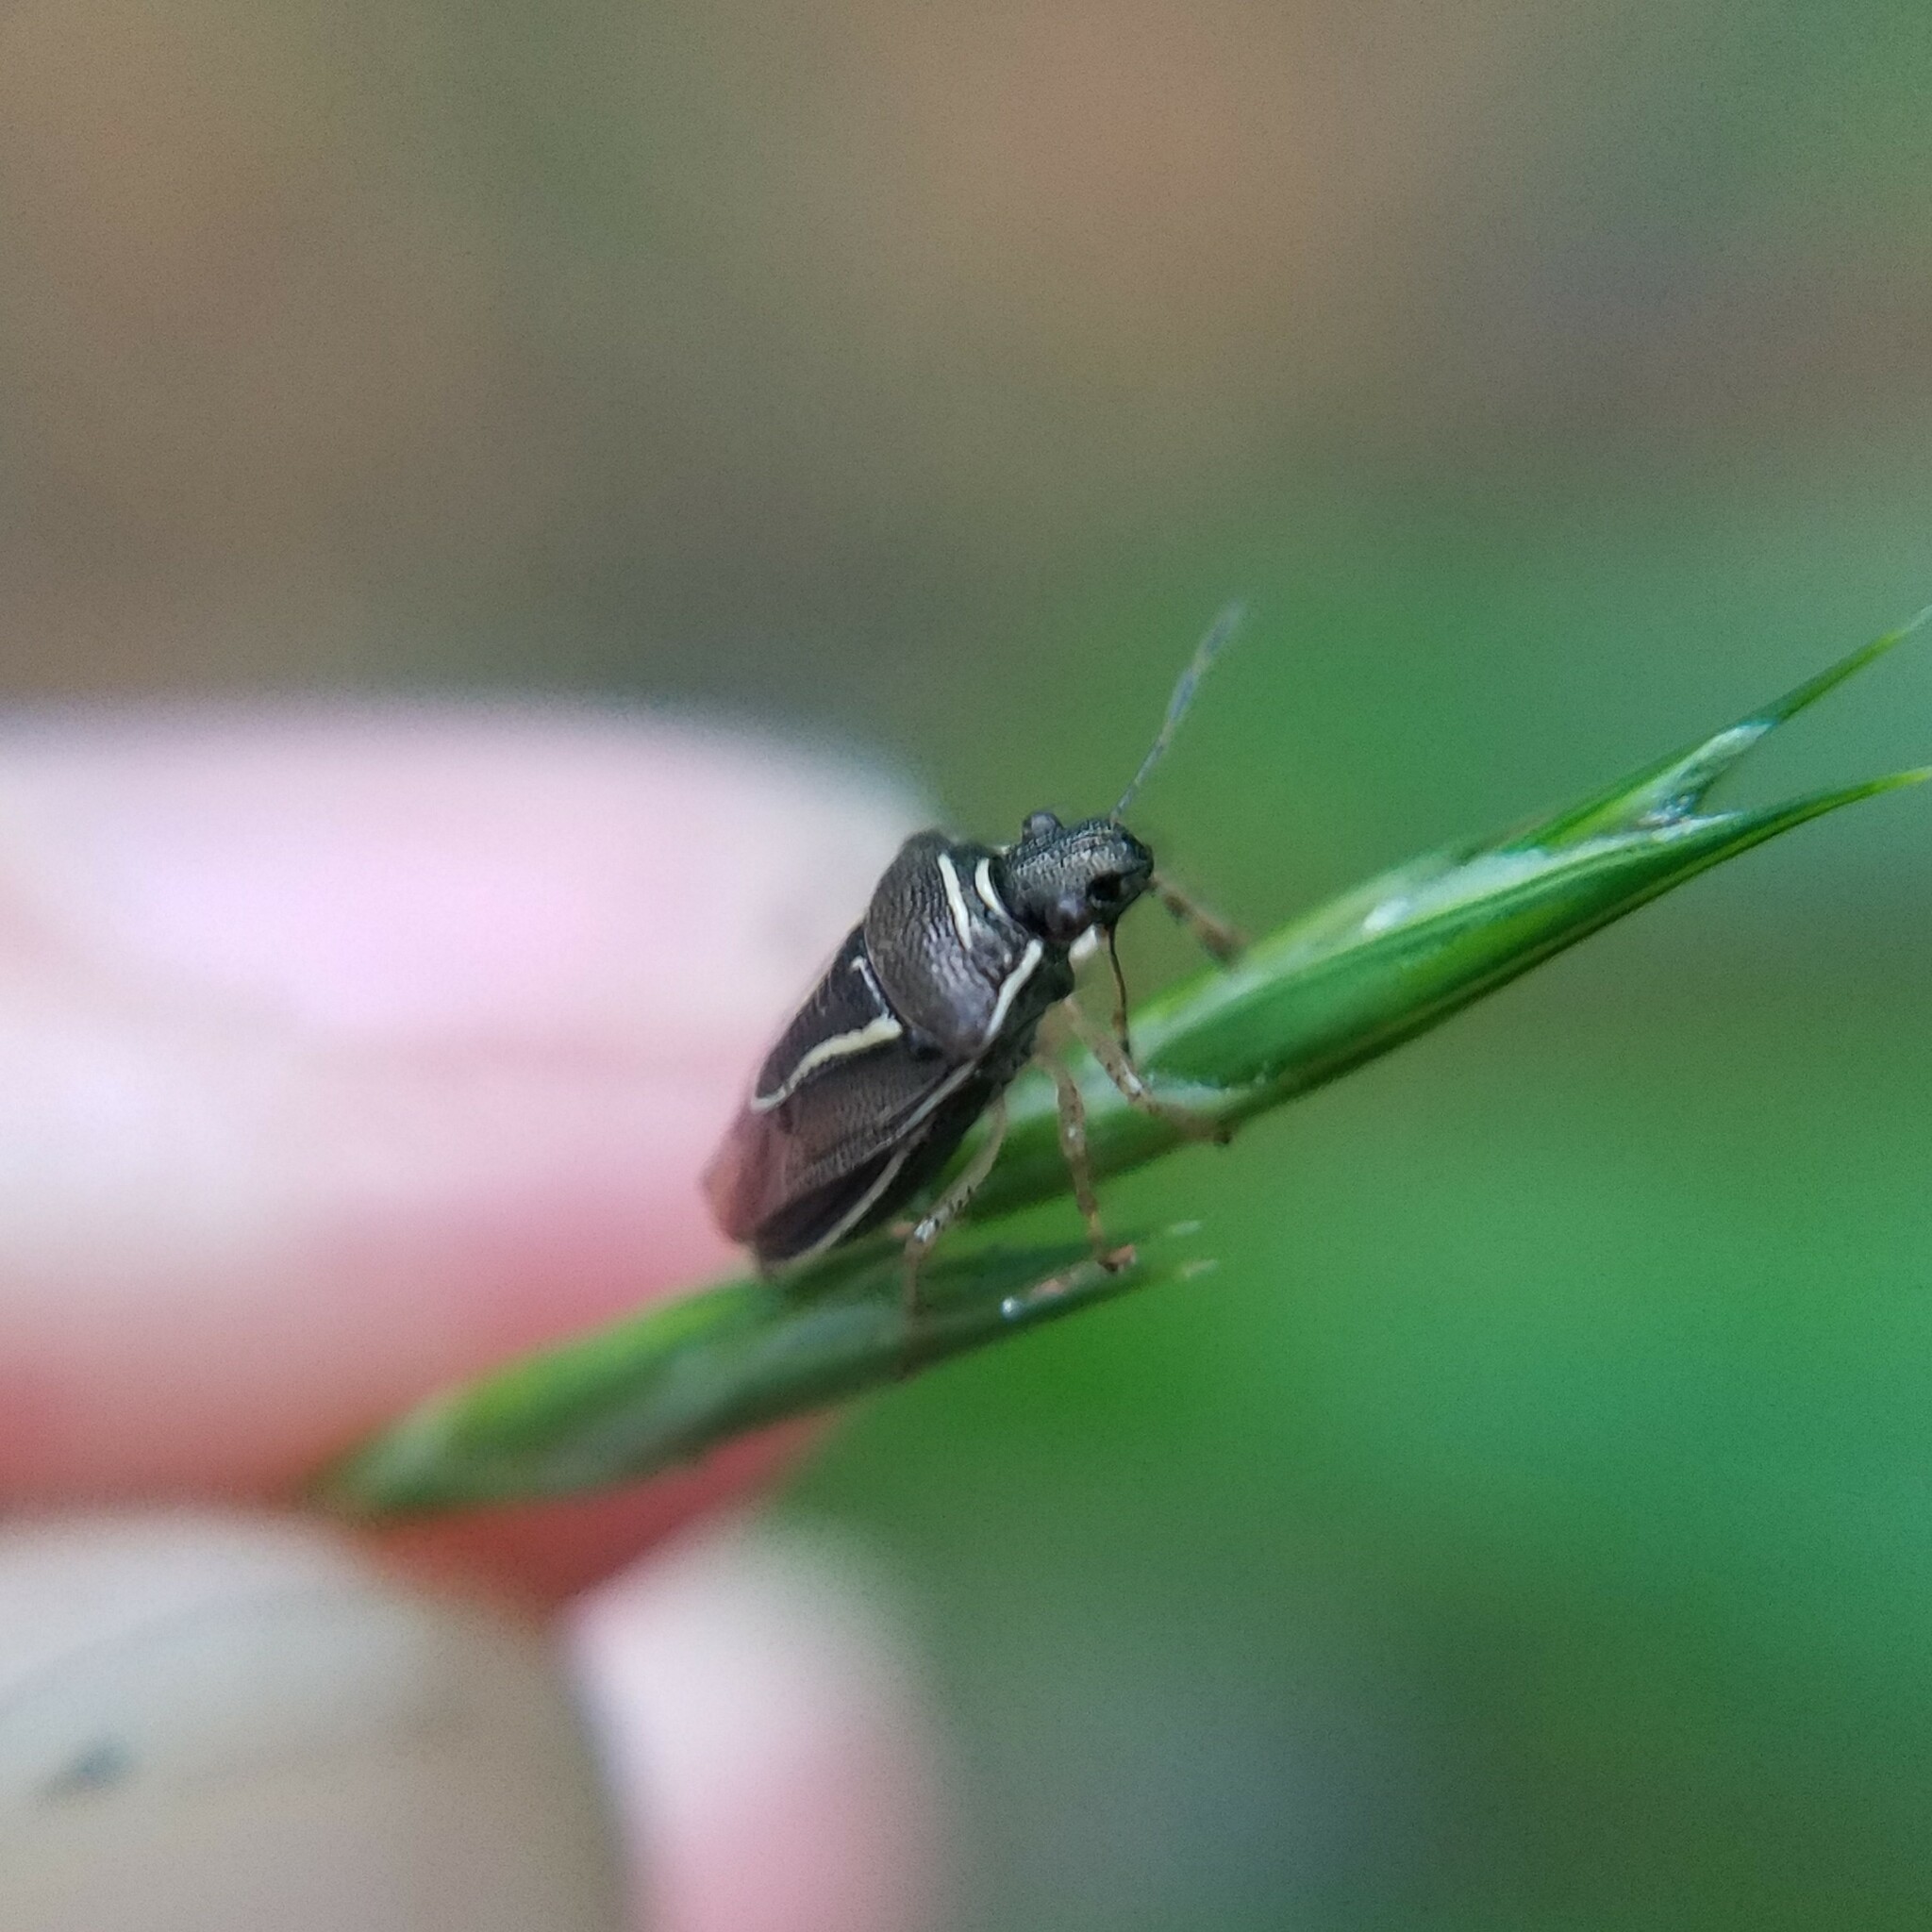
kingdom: Animalia
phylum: Arthropoda
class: Insecta
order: Hemiptera
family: Pentatomidae
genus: Mormidea
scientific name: Mormidea lugens
